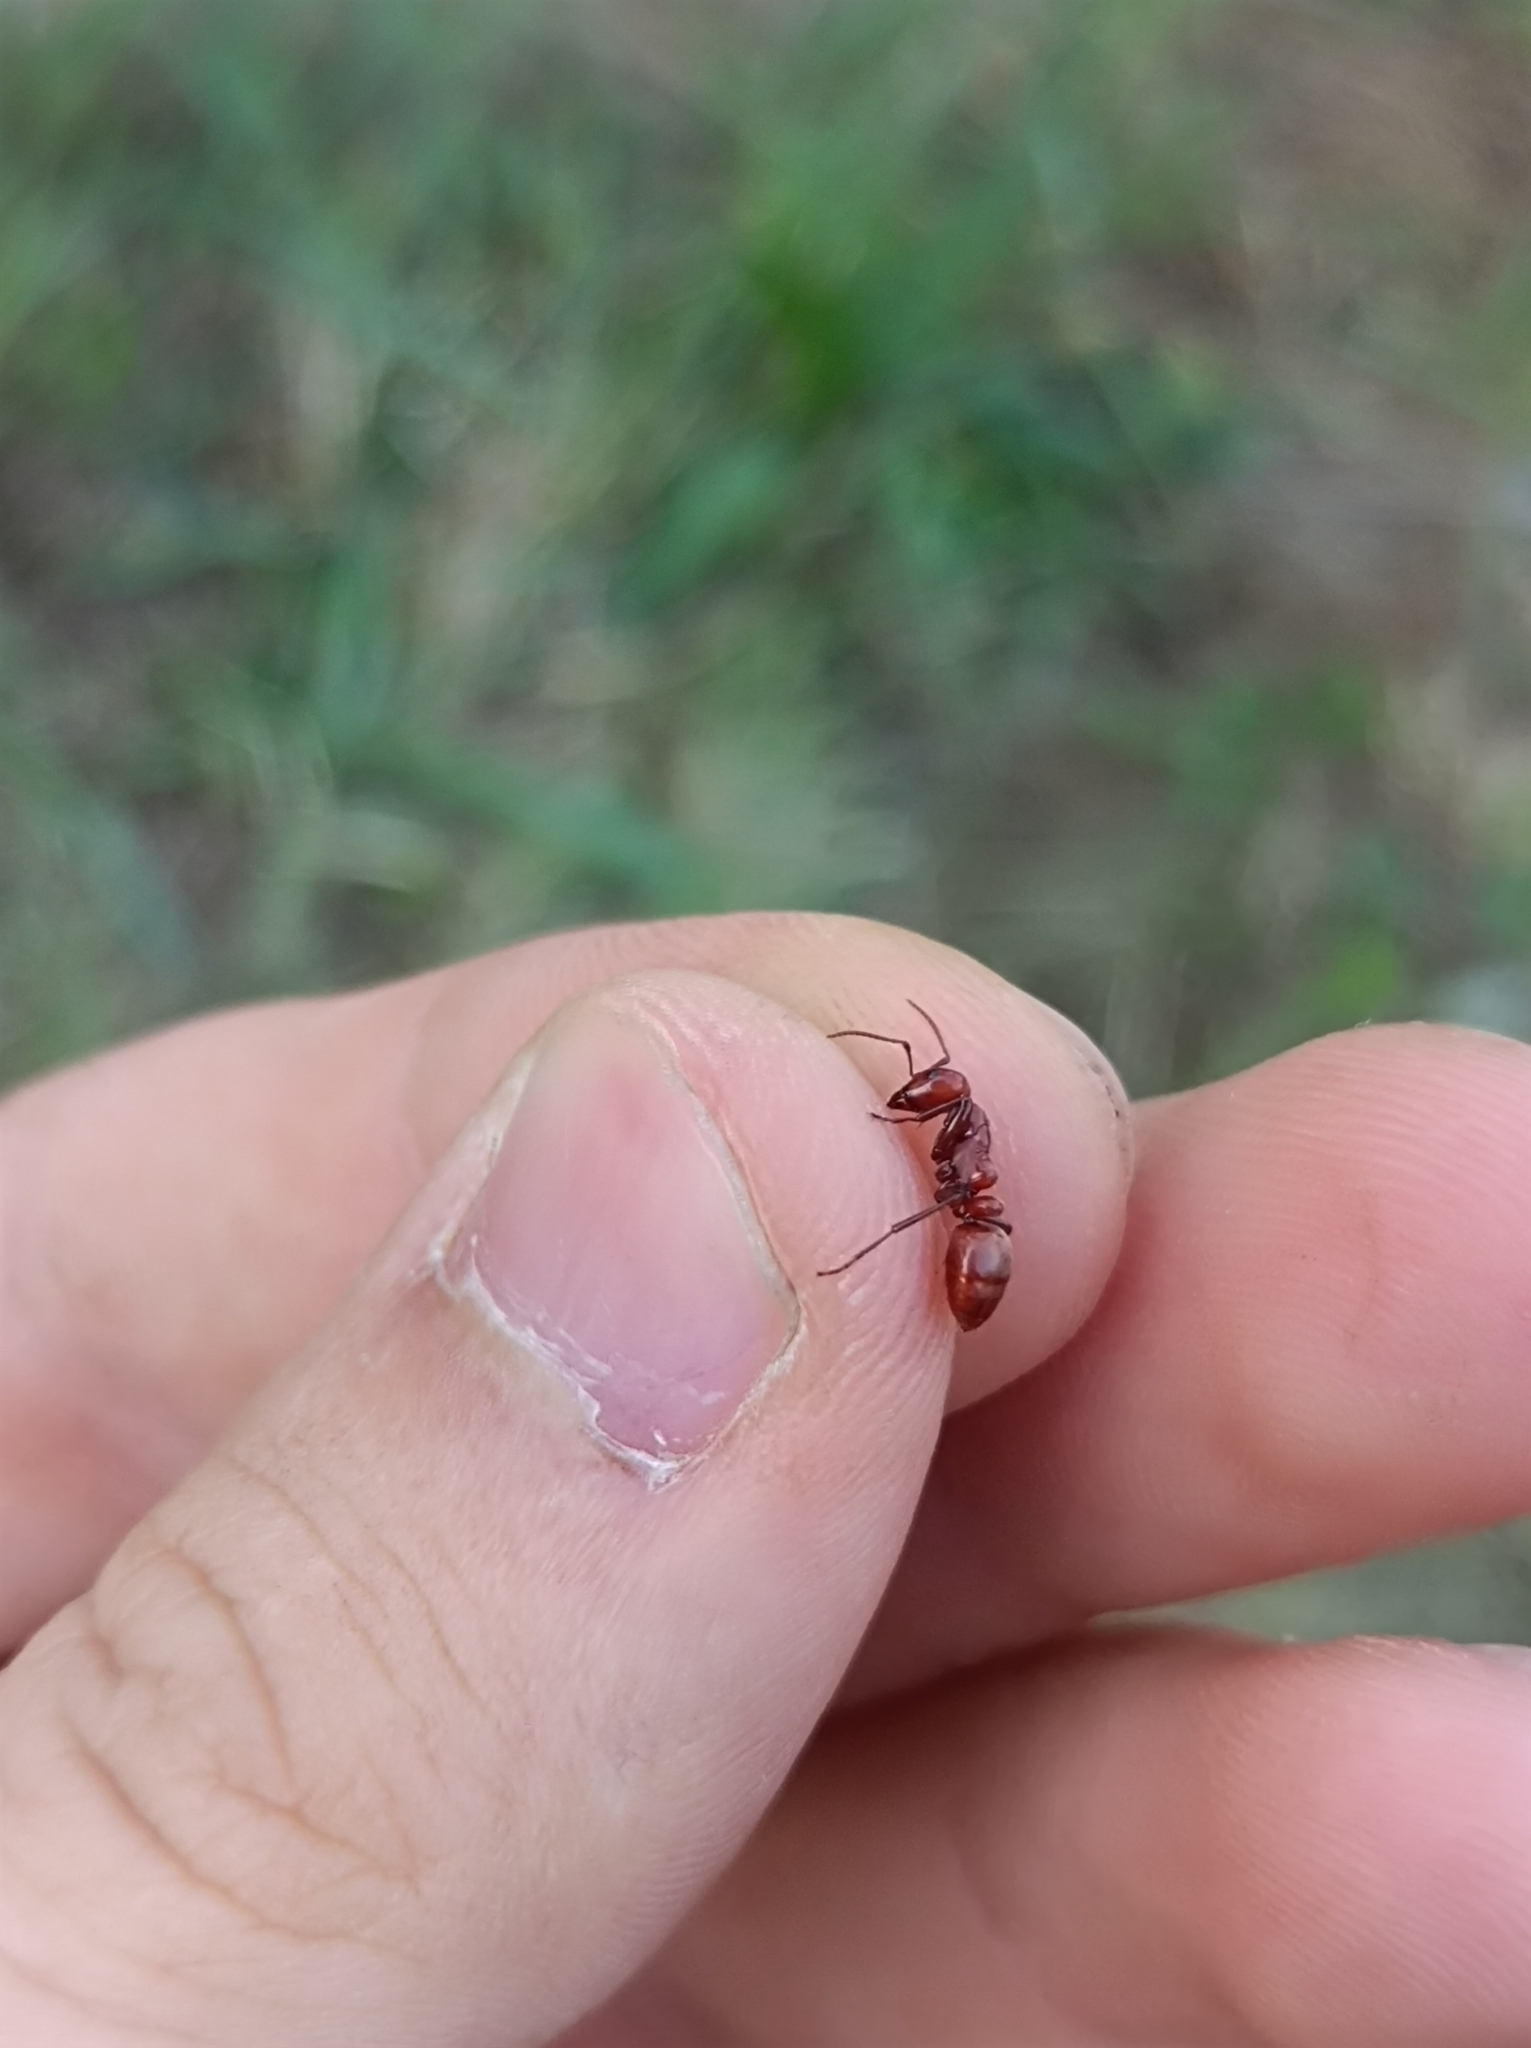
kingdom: Animalia
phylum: Arthropoda
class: Insecta
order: Hymenoptera
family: Formicidae
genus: Polyergus
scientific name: Polyergus rufescens
